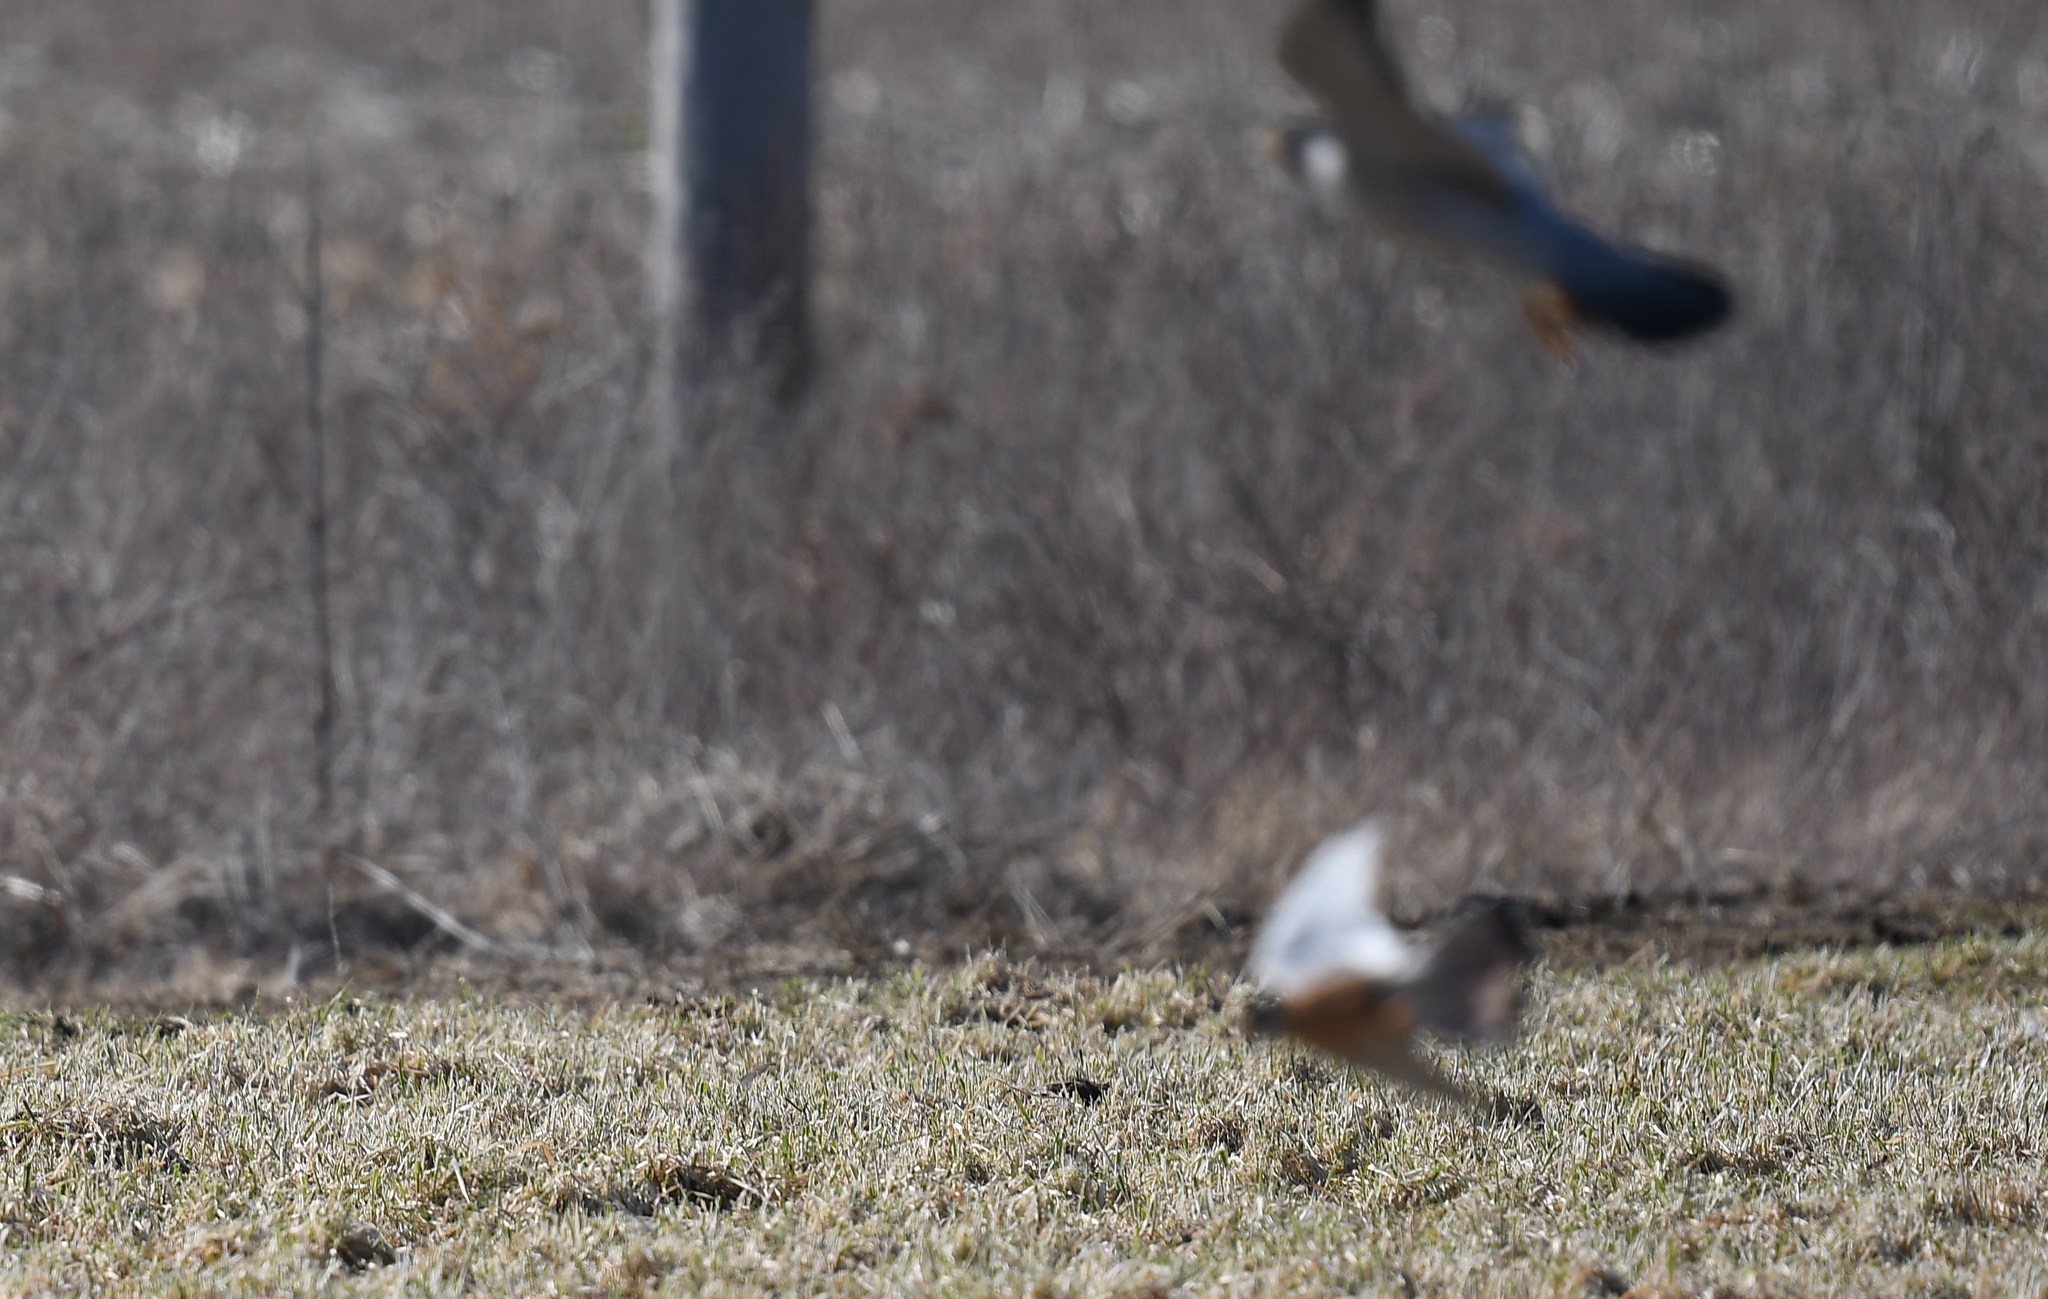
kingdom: Animalia
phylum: Chordata
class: Aves
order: Falconiformes
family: Falconidae
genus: Falco
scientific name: Falco peregrinus
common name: Peregrine falcon
